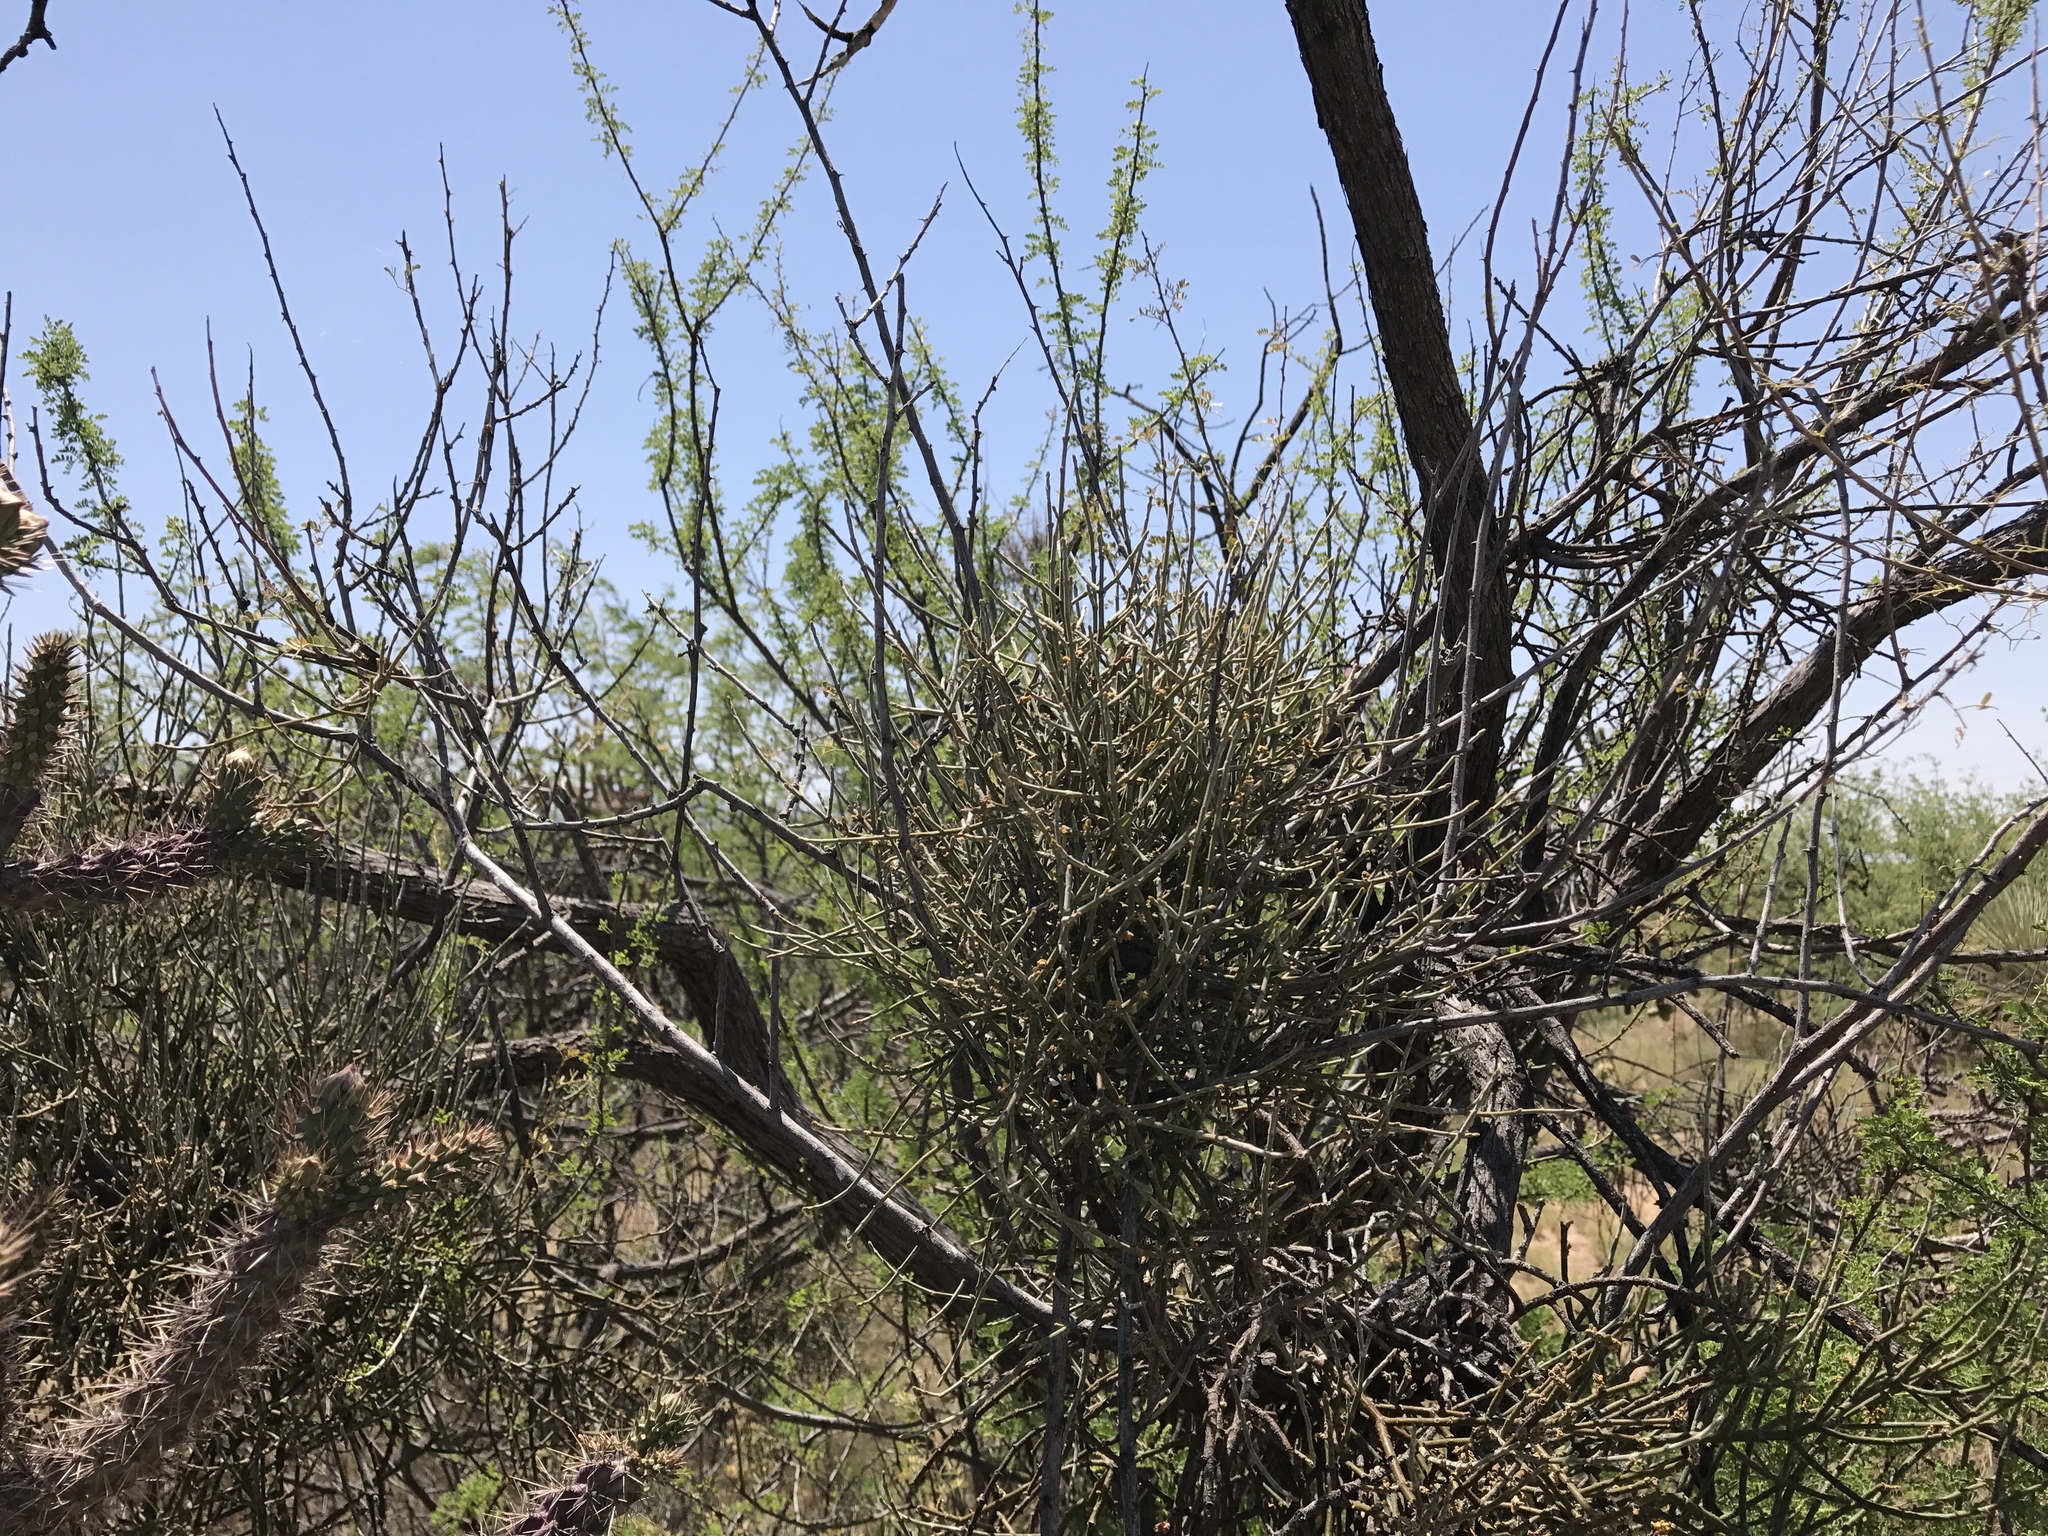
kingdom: Plantae
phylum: Tracheophyta
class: Magnoliopsida
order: Santalales
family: Viscaceae
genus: Phoradendron
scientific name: Phoradendron californicum
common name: Acacia mistletoe
